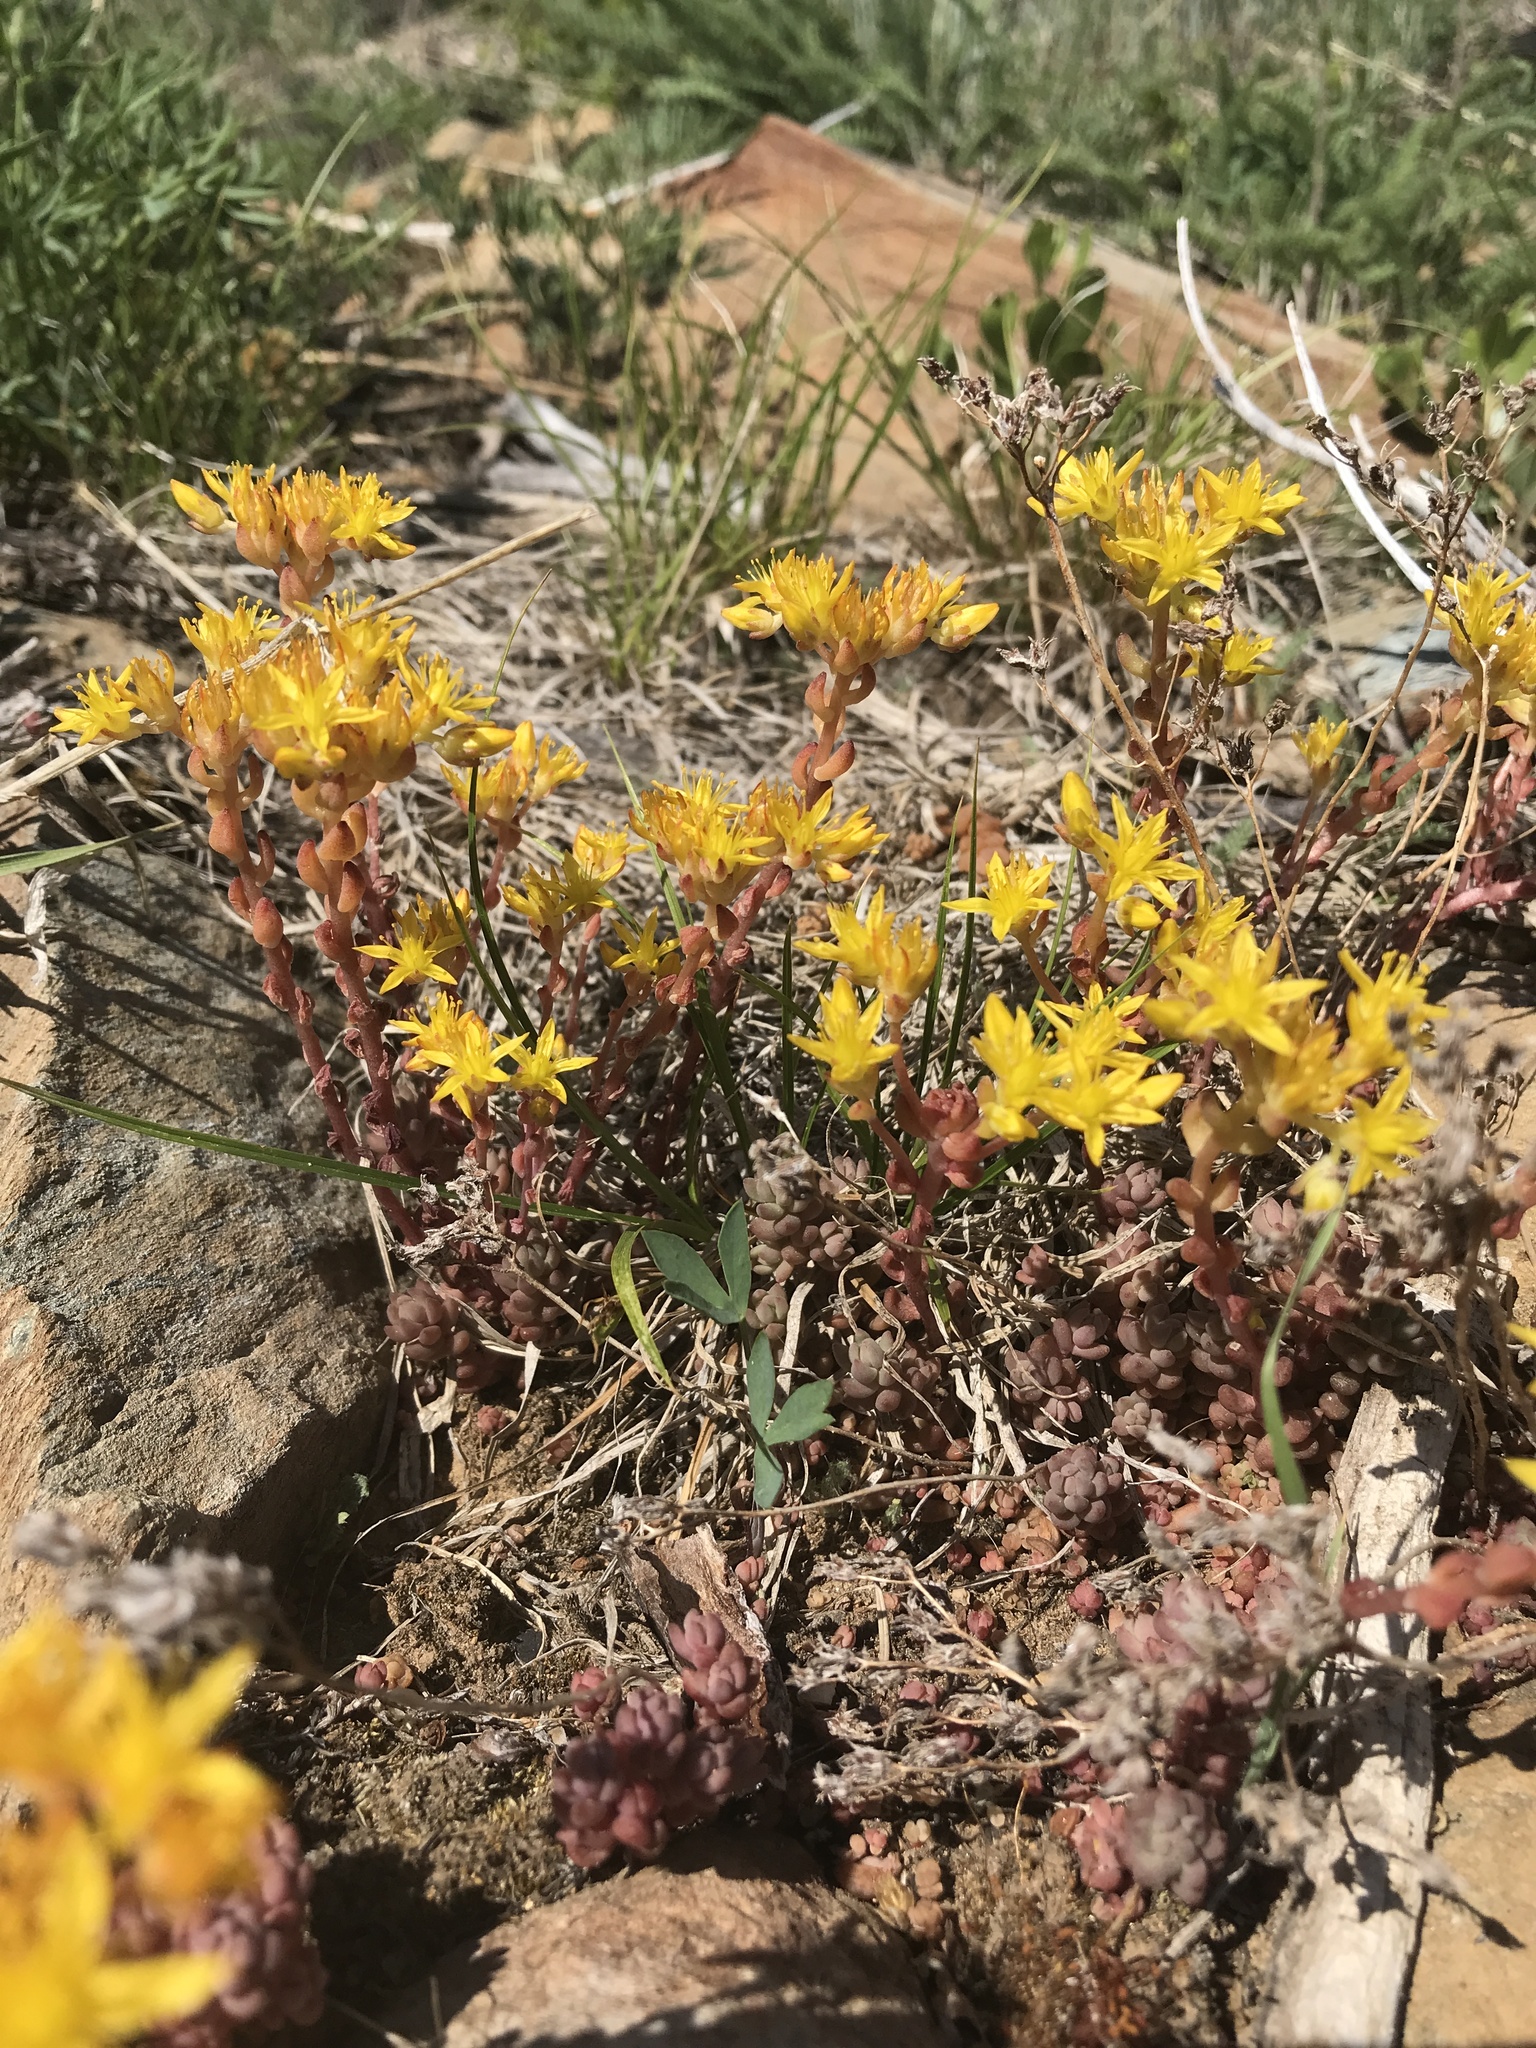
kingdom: Plantae
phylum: Tracheophyta
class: Magnoliopsida
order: Saxifragales
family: Crassulaceae
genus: Sedum
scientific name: Sedum rupicola
